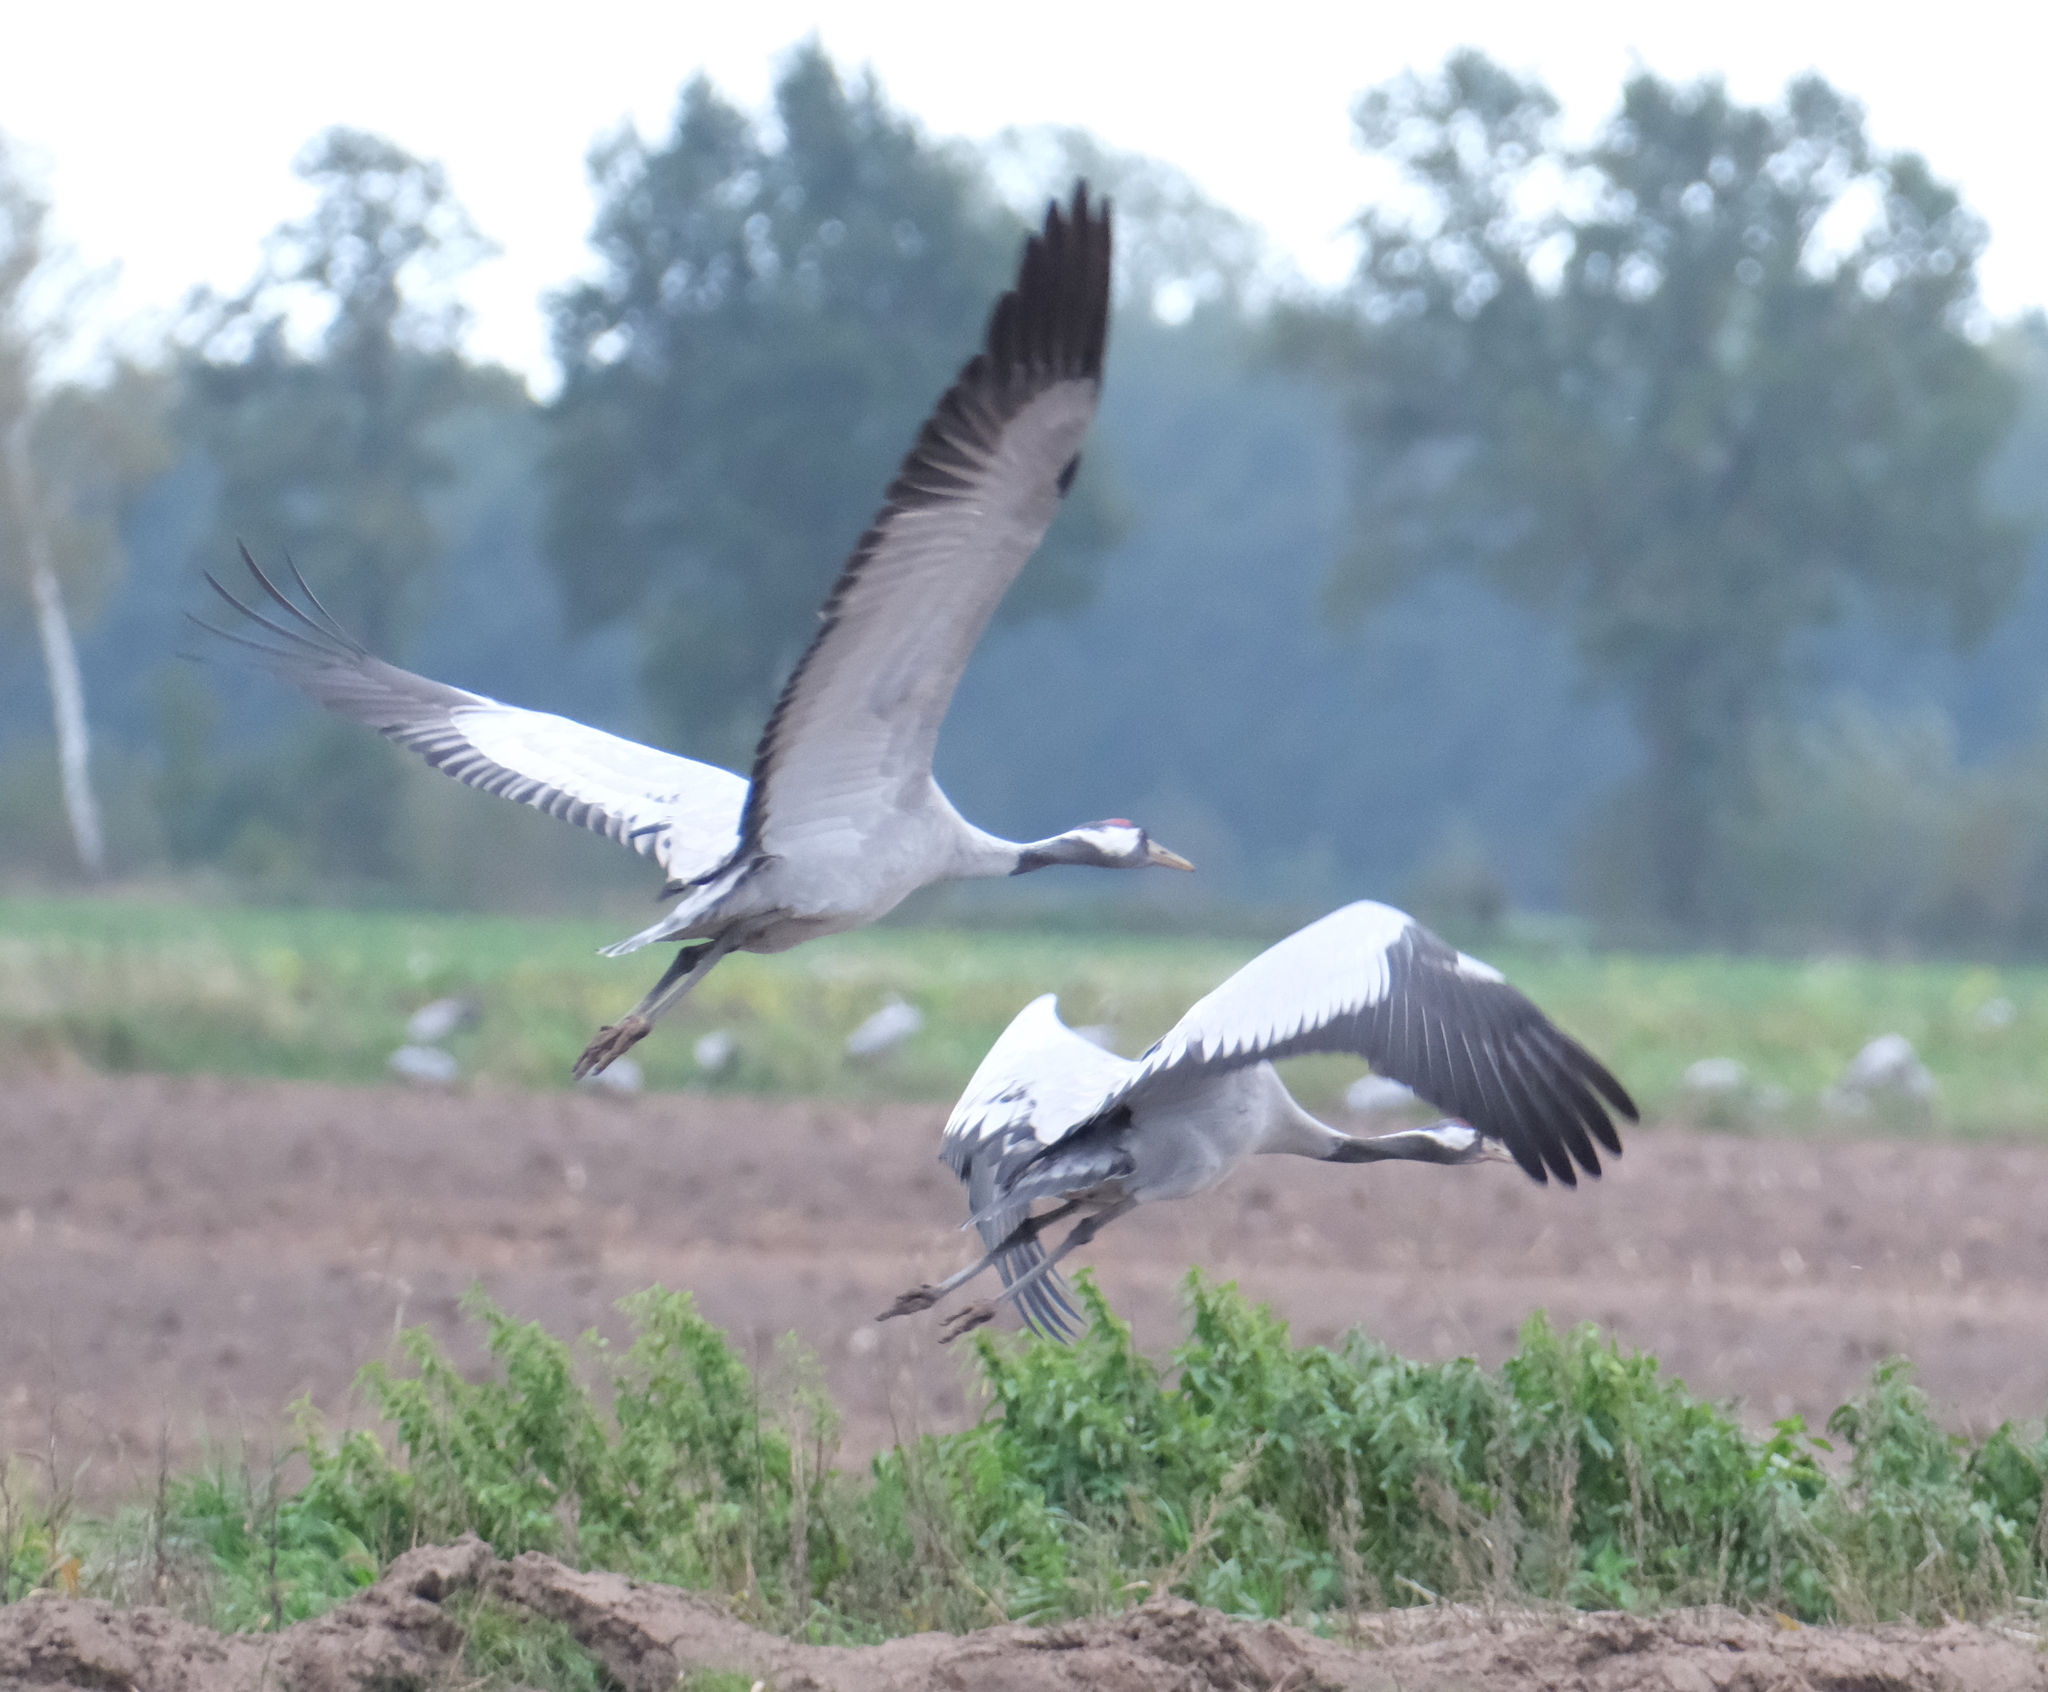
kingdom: Animalia
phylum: Chordata
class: Aves
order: Gruiformes
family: Gruidae
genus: Grus
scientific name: Grus grus
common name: Common crane
